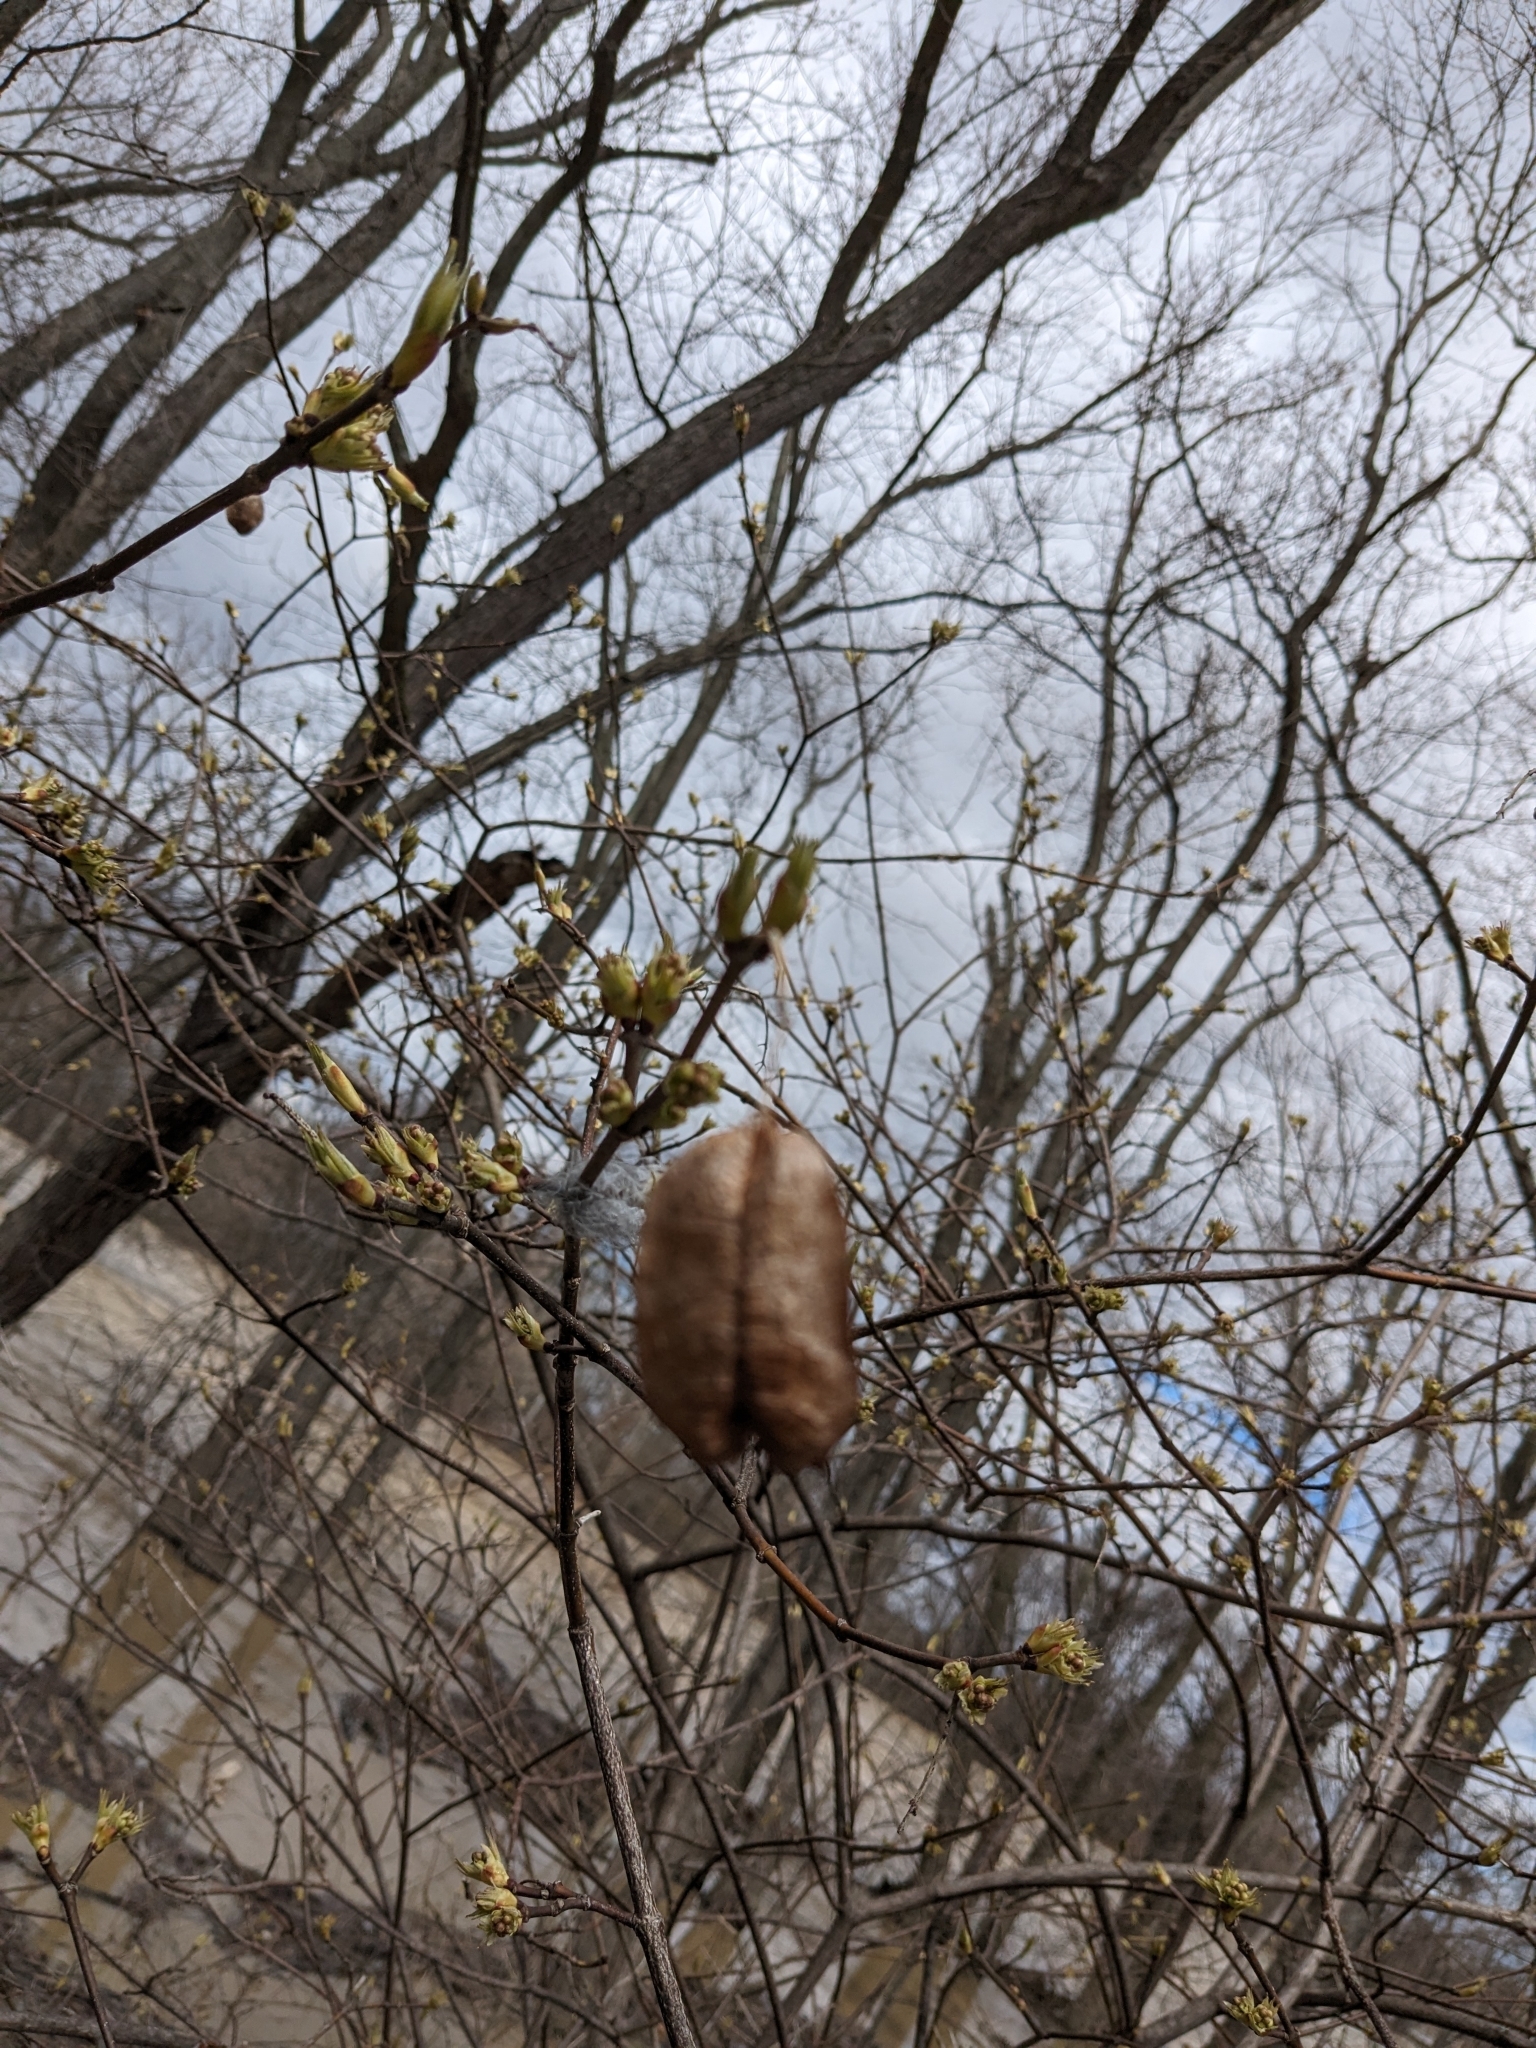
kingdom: Plantae
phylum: Tracheophyta
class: Magnoliopsida
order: Crossosomatales
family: Staphyleaceae
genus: Staphylea
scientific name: Staphylea trifolia
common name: American bladdernut
